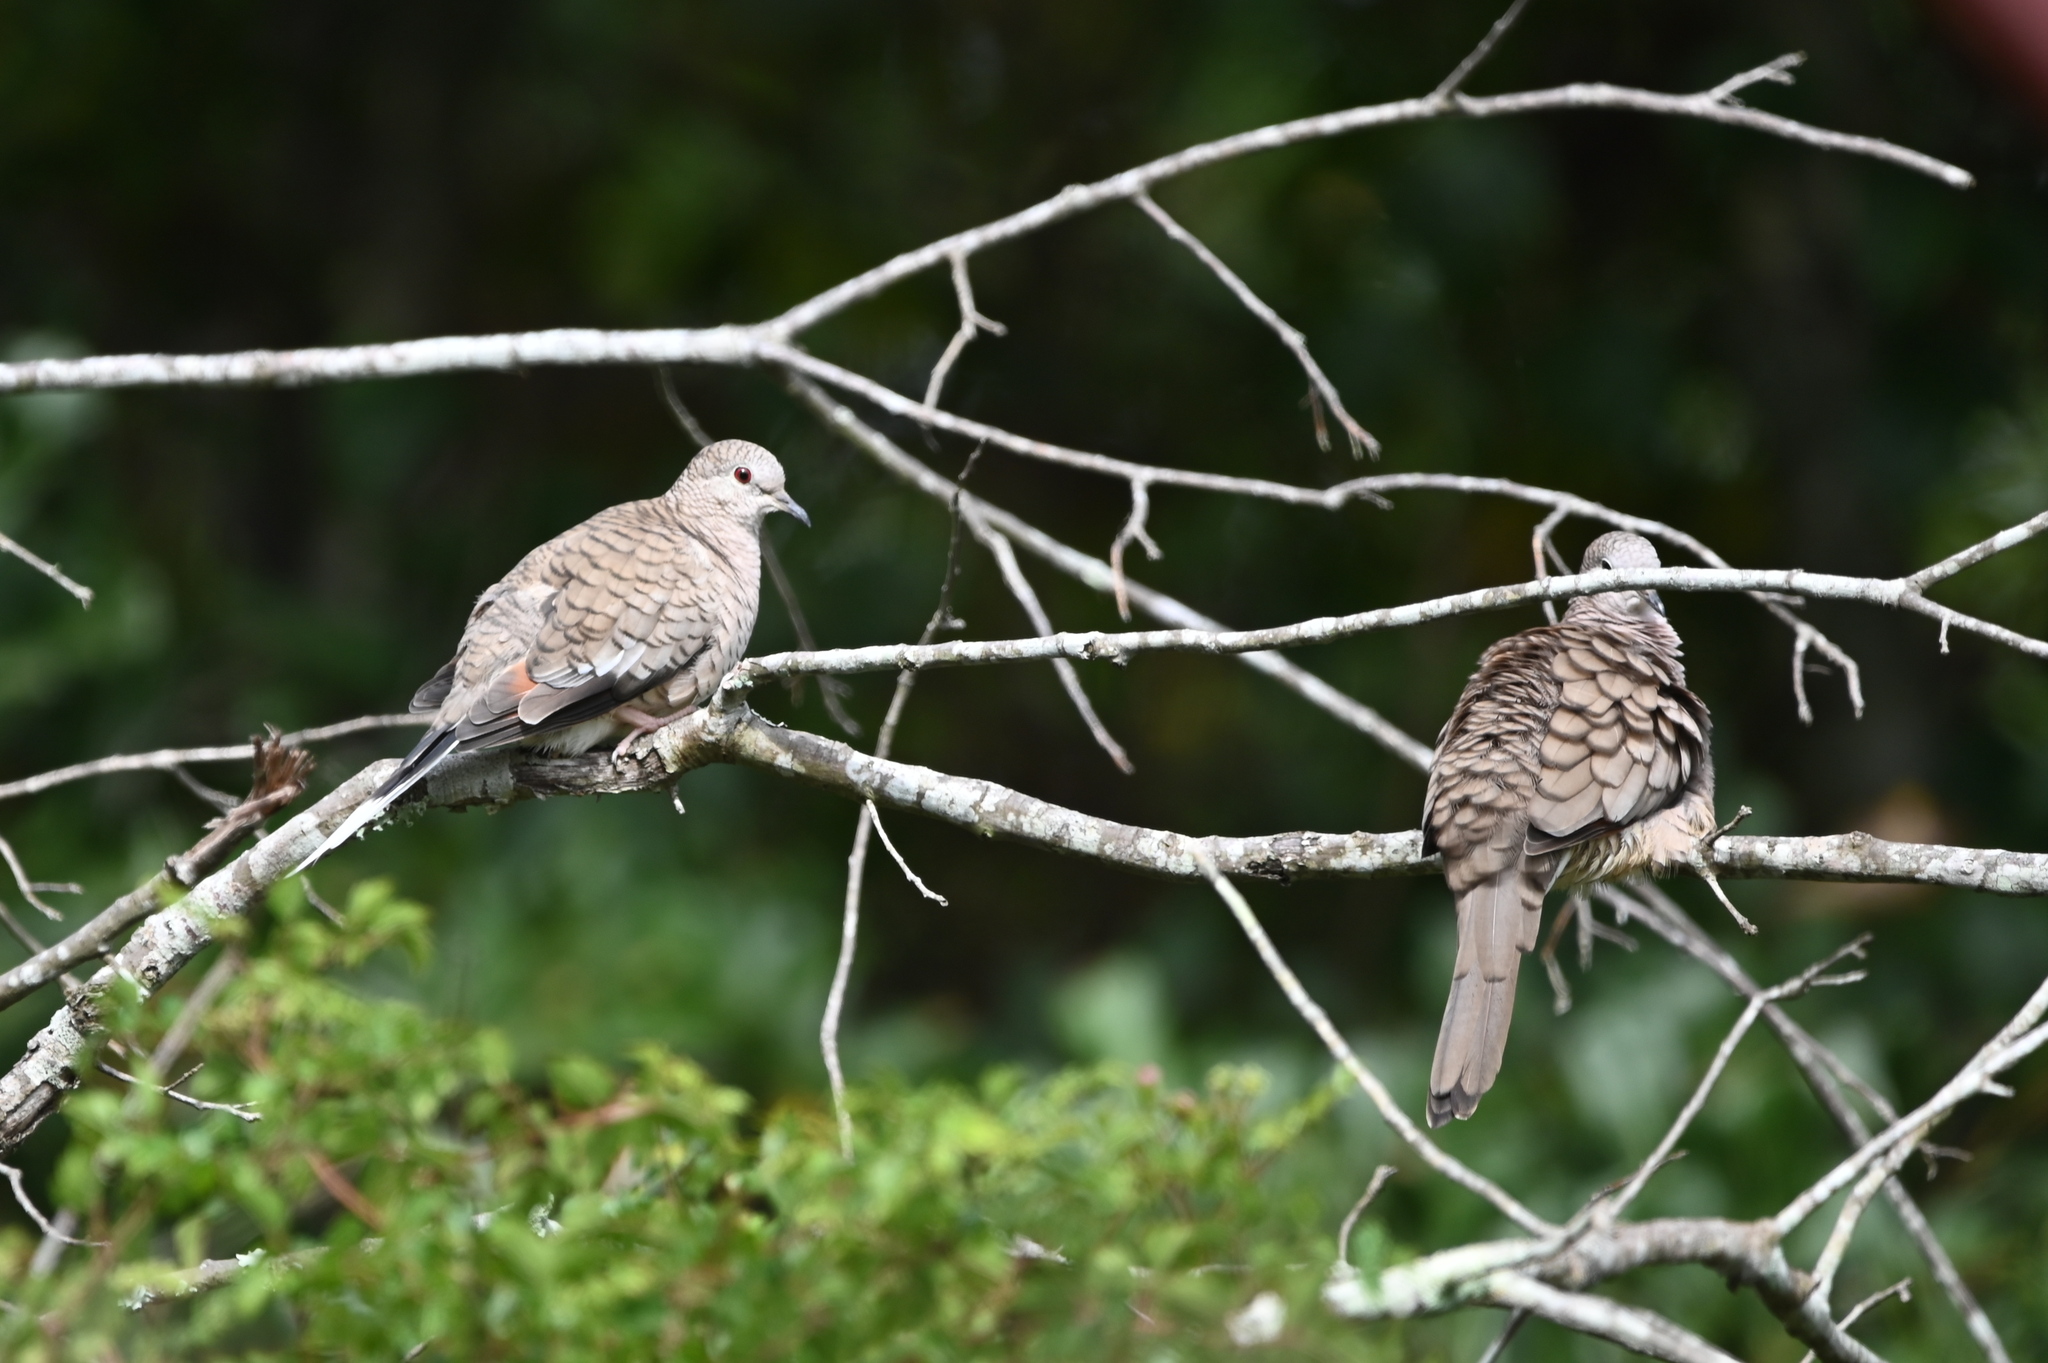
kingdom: Animalia
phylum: Chordata
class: Aves
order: Columbiformes
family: Columbidae
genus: Columbina
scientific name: Columbina inca
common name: Inca dove
